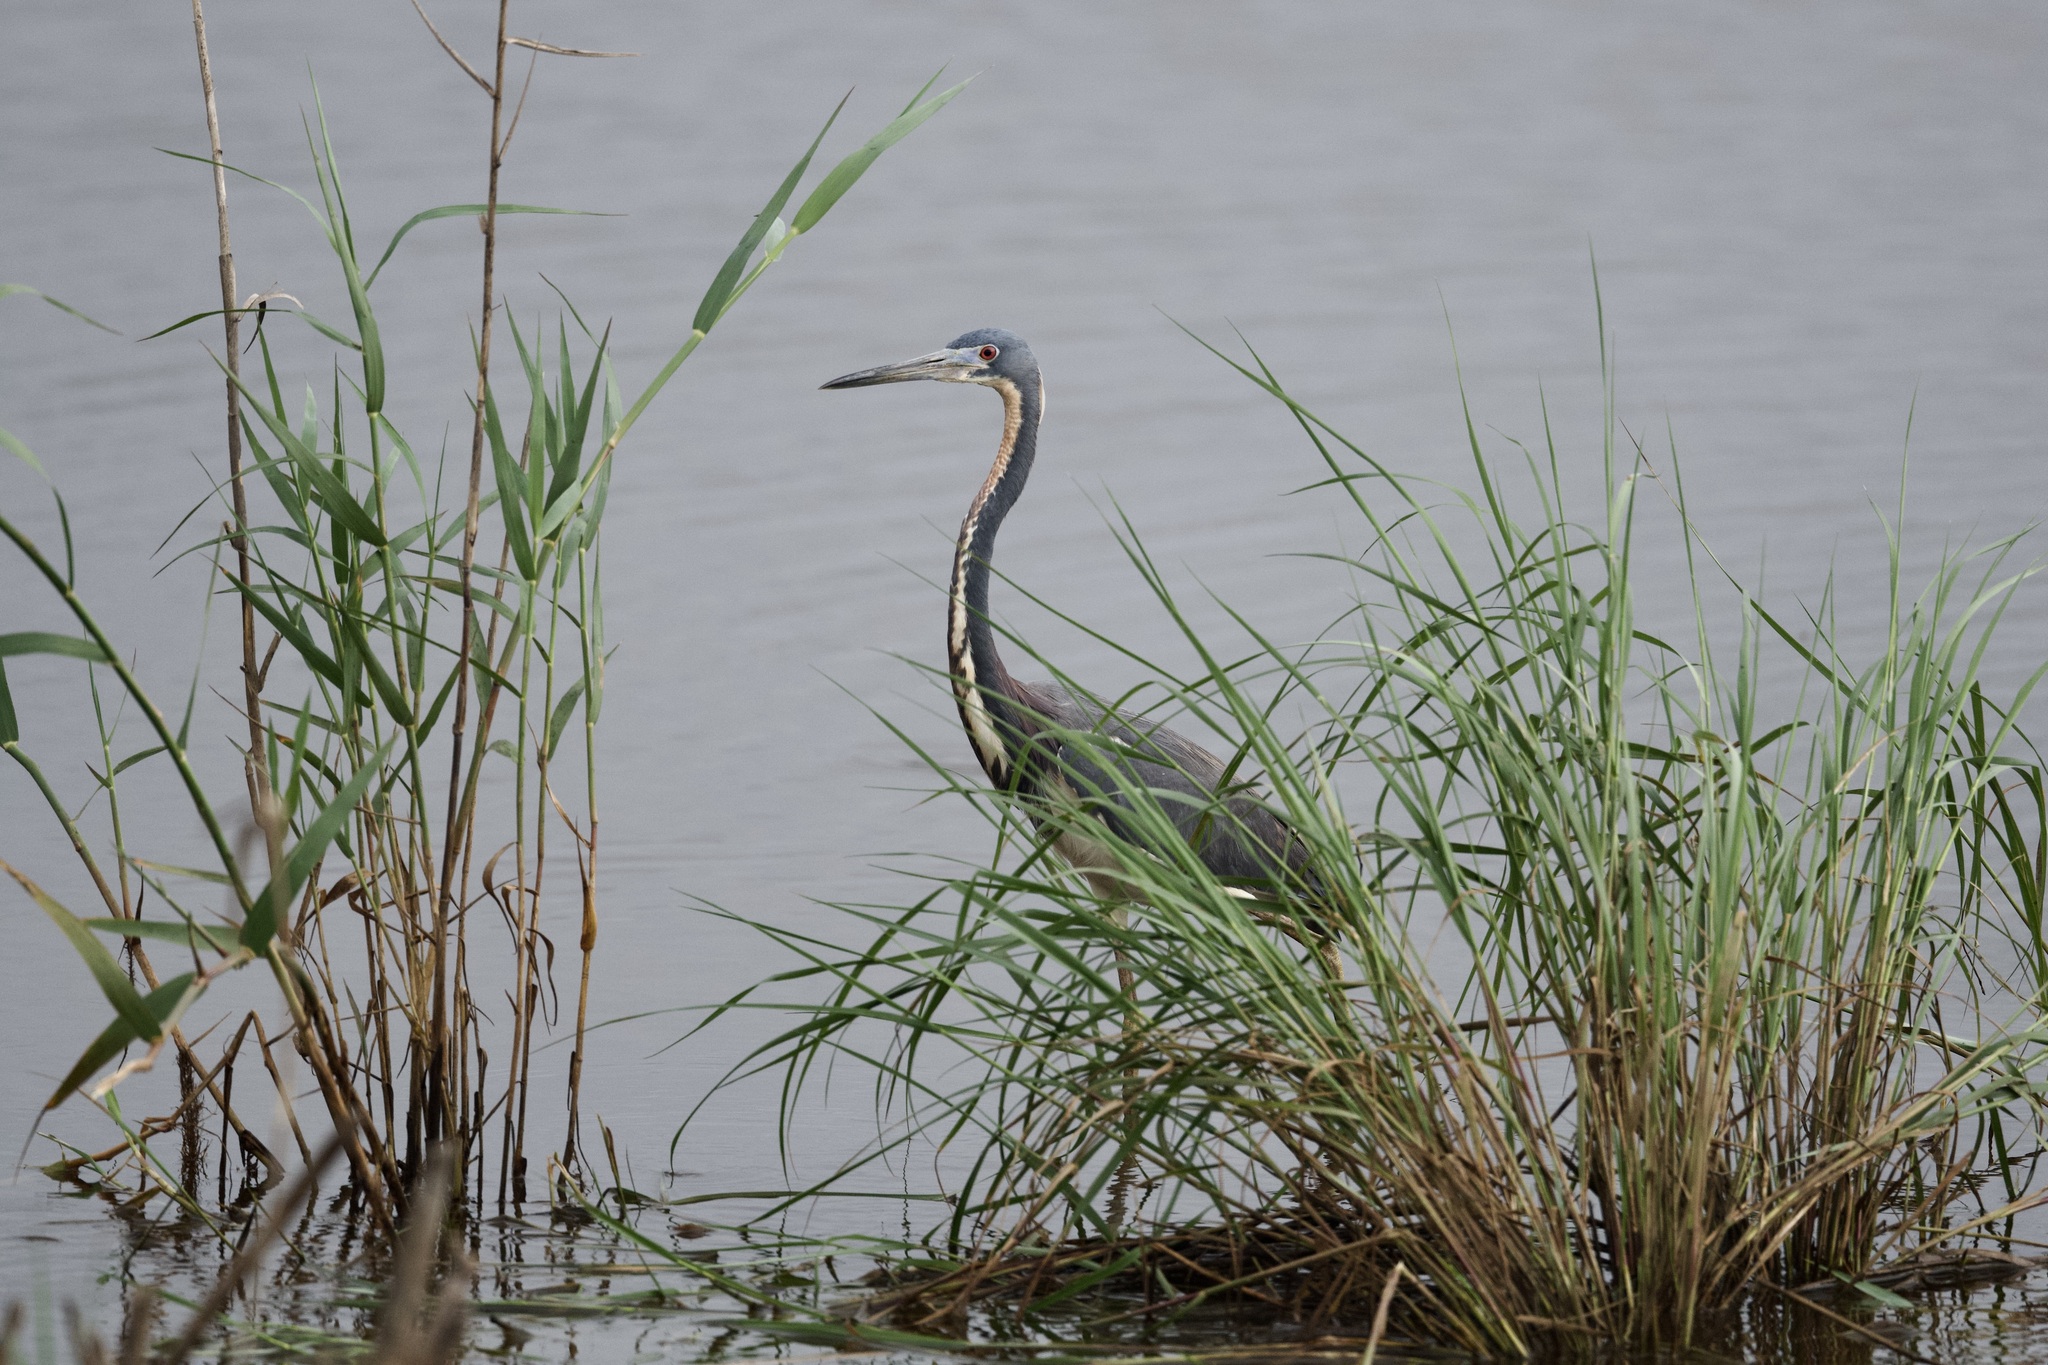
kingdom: Animalia
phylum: Chordata
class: Aves
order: Pelecaniformes
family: Ardeidae
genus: Egretta
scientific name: Egretta tricolor
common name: Tricolored heron
